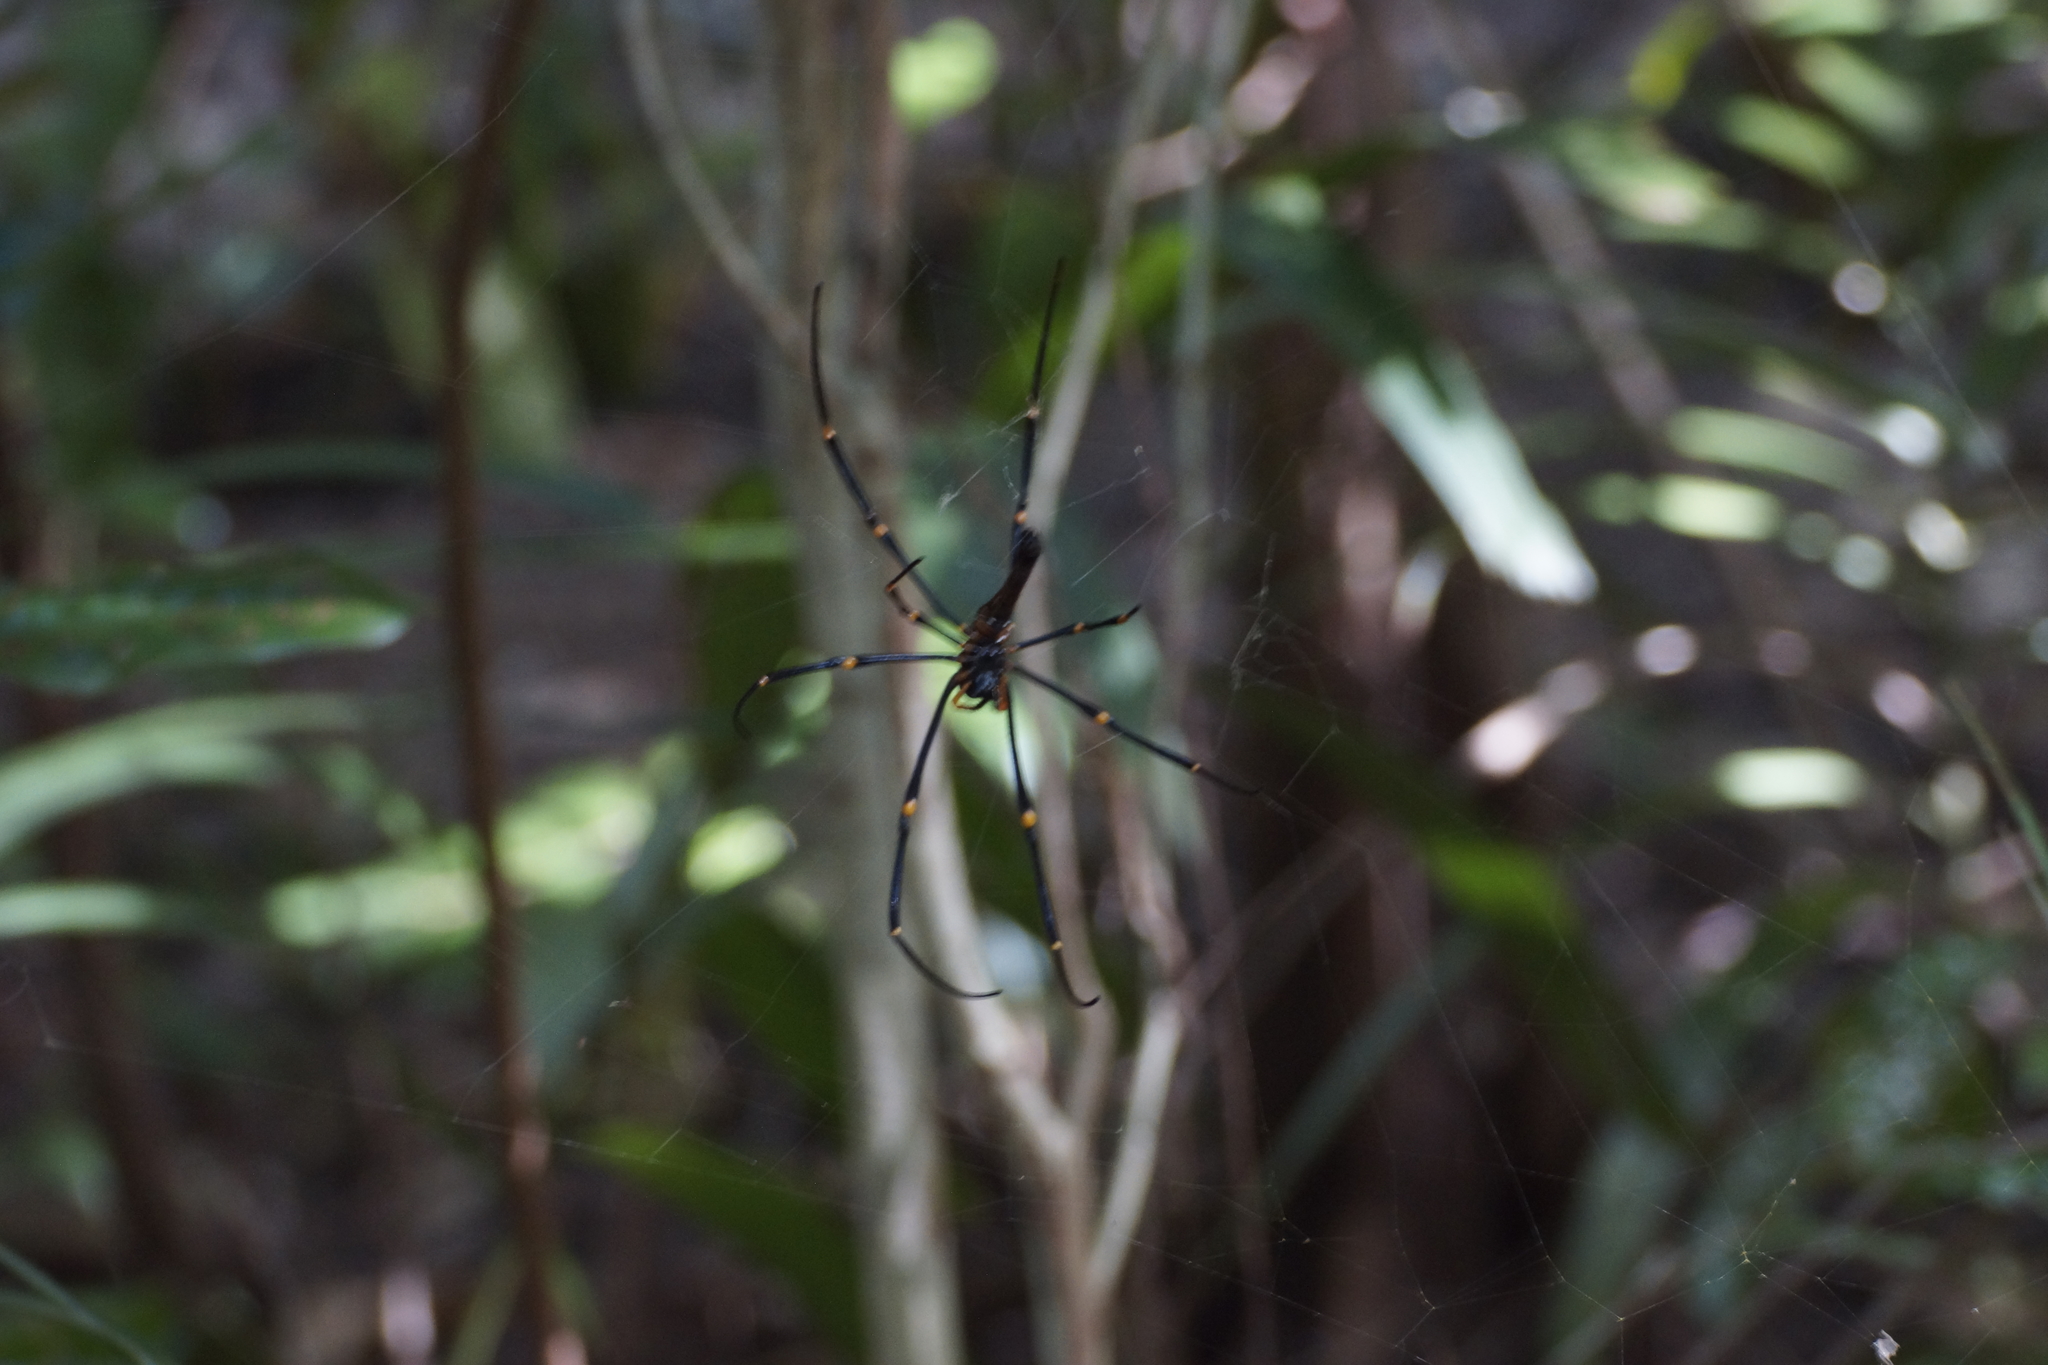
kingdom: Animalia
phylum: Arthropoda
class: Arachnida
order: Araneae
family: Araneidae
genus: Nephila
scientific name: Nephila pilipes
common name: Giant golden orb weaver
